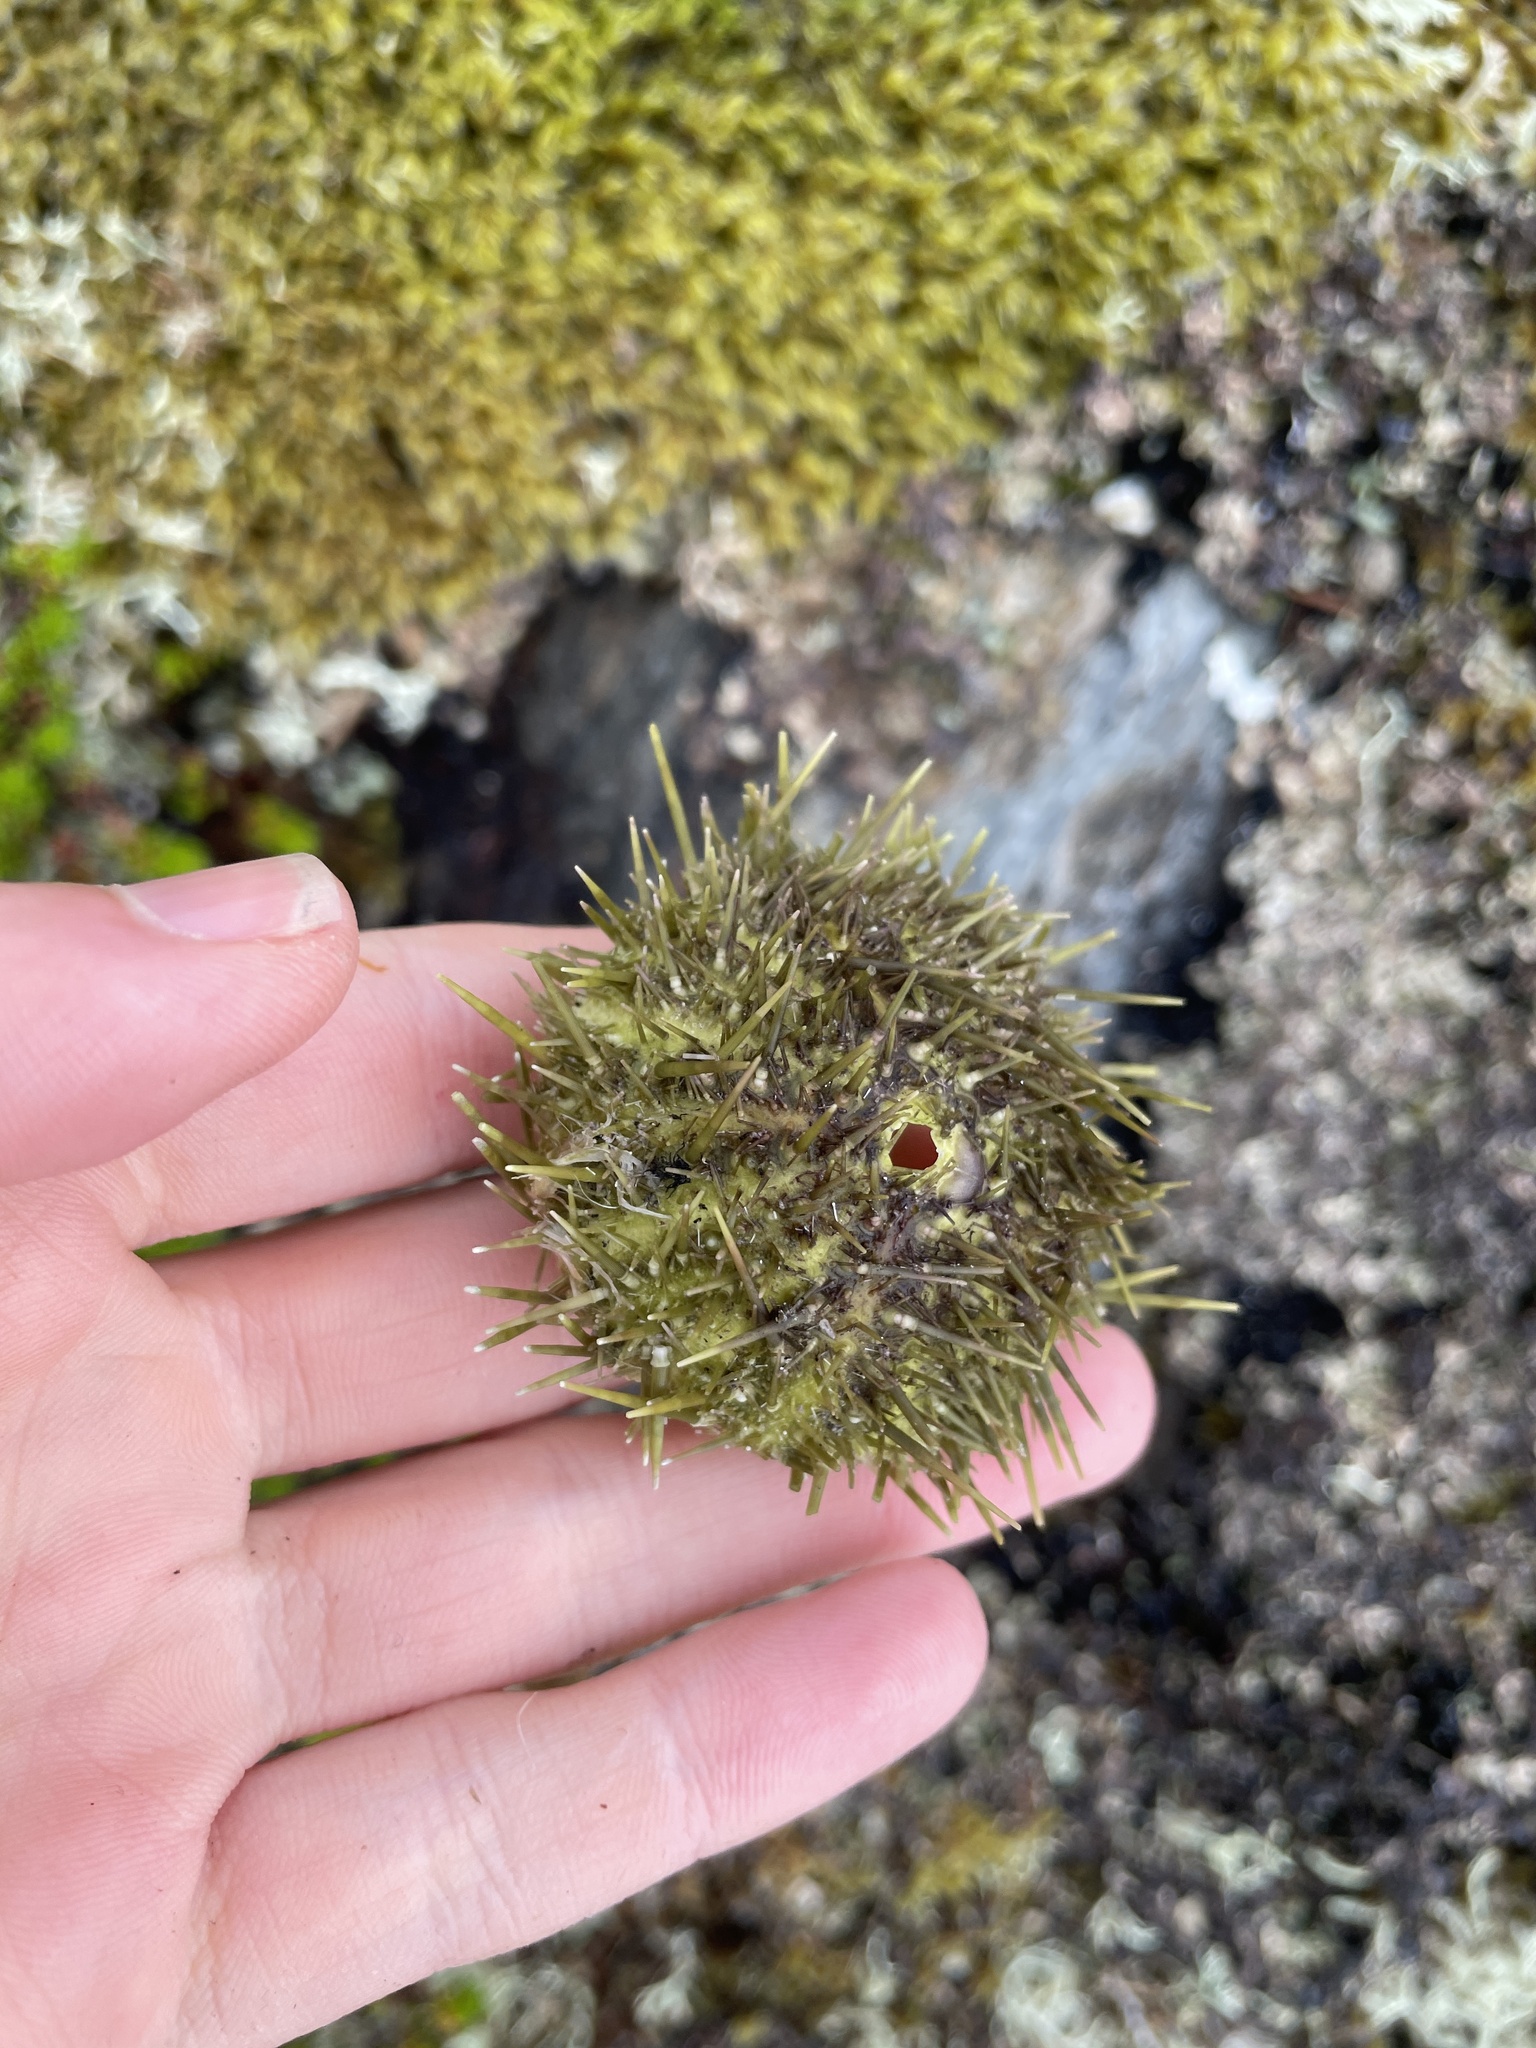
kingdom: Animalia
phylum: Echinodermata
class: Echinoidea
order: Camarodonta
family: Strongylocentrotidae
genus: Strongylocentrotus
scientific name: Strongylocentrotus droebachiensis
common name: Northern sea urchin
